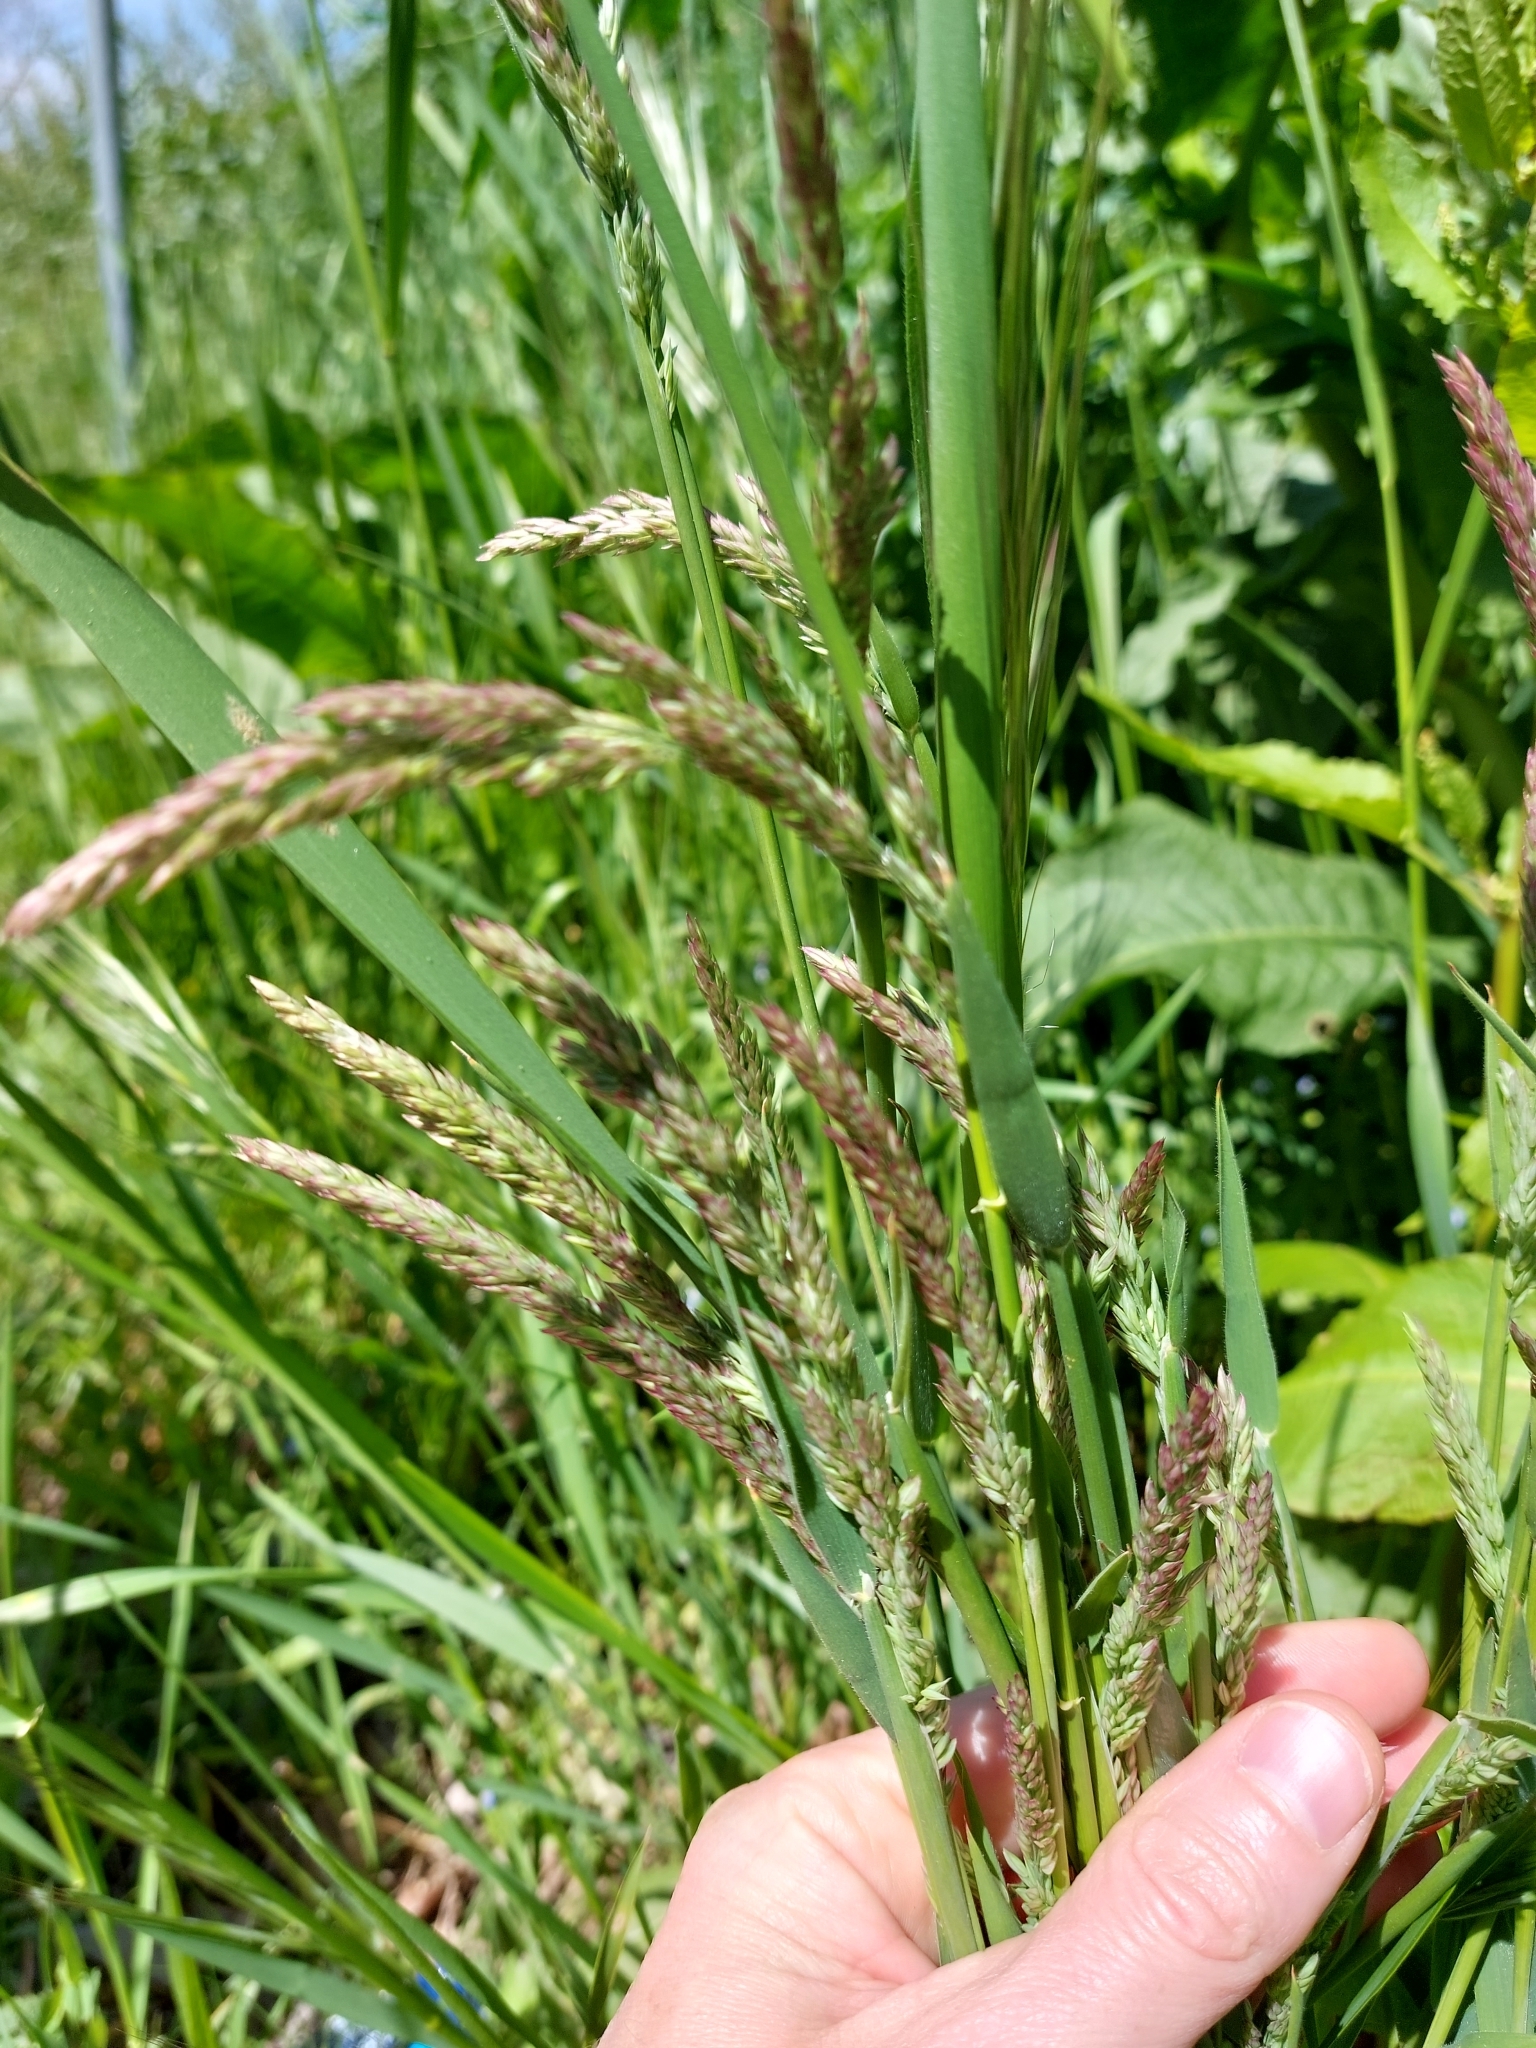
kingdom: Plantae
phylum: Tracheophyta
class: Liliopsida
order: Poales
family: Poaceae
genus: Holcus
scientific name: Holcus lanatus
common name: Yorkshire-fog
